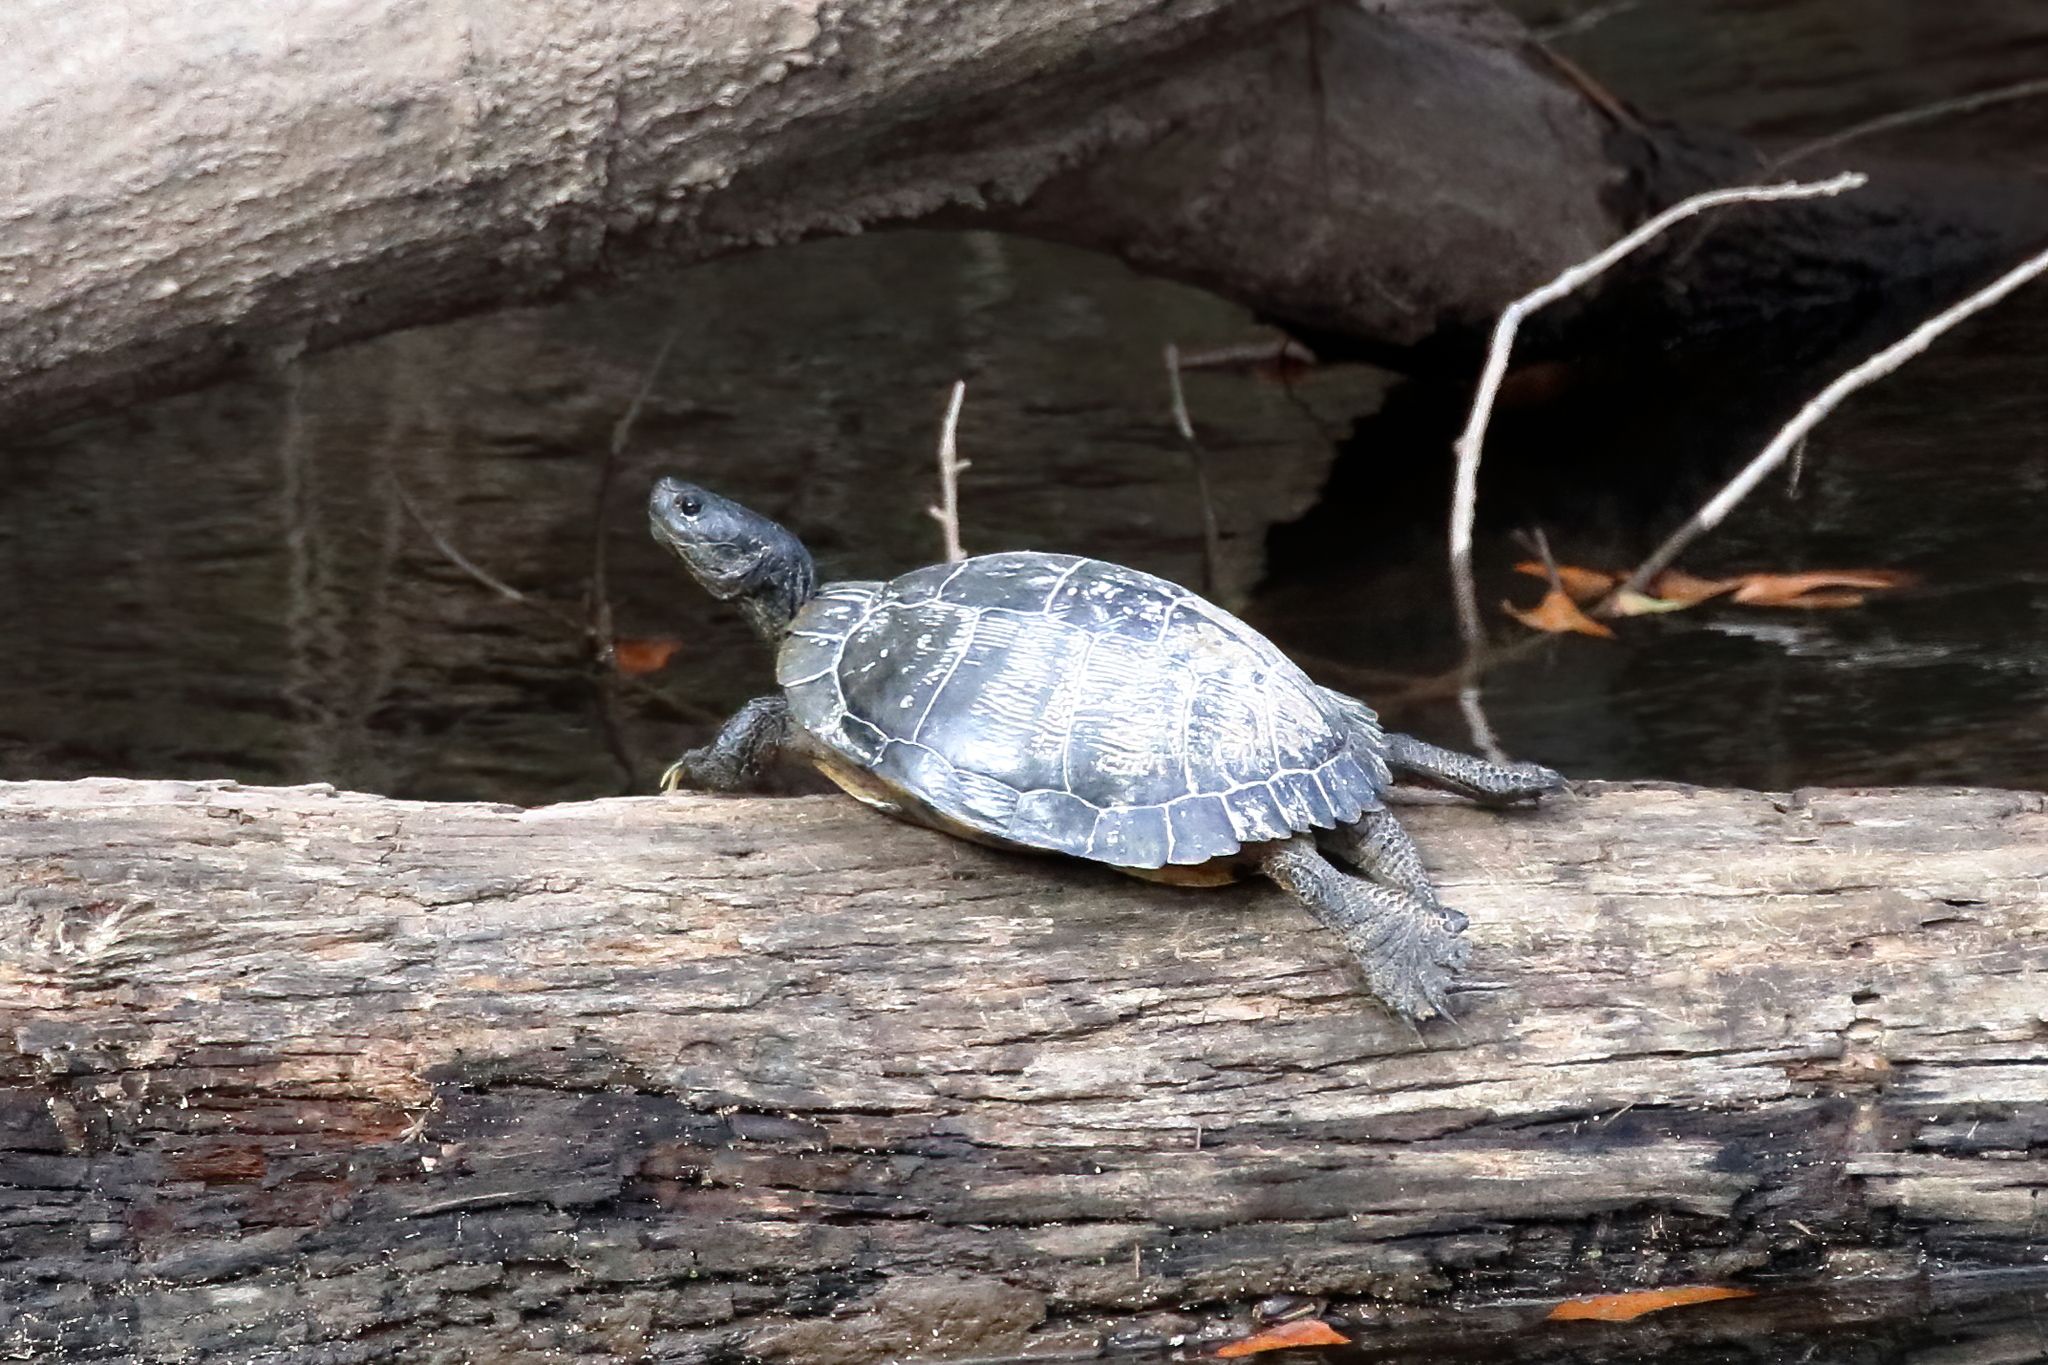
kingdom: Animalia
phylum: Chordata
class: Testudines
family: Emydidae
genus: Trachemys
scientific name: Trachemys scripta
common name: Slider
